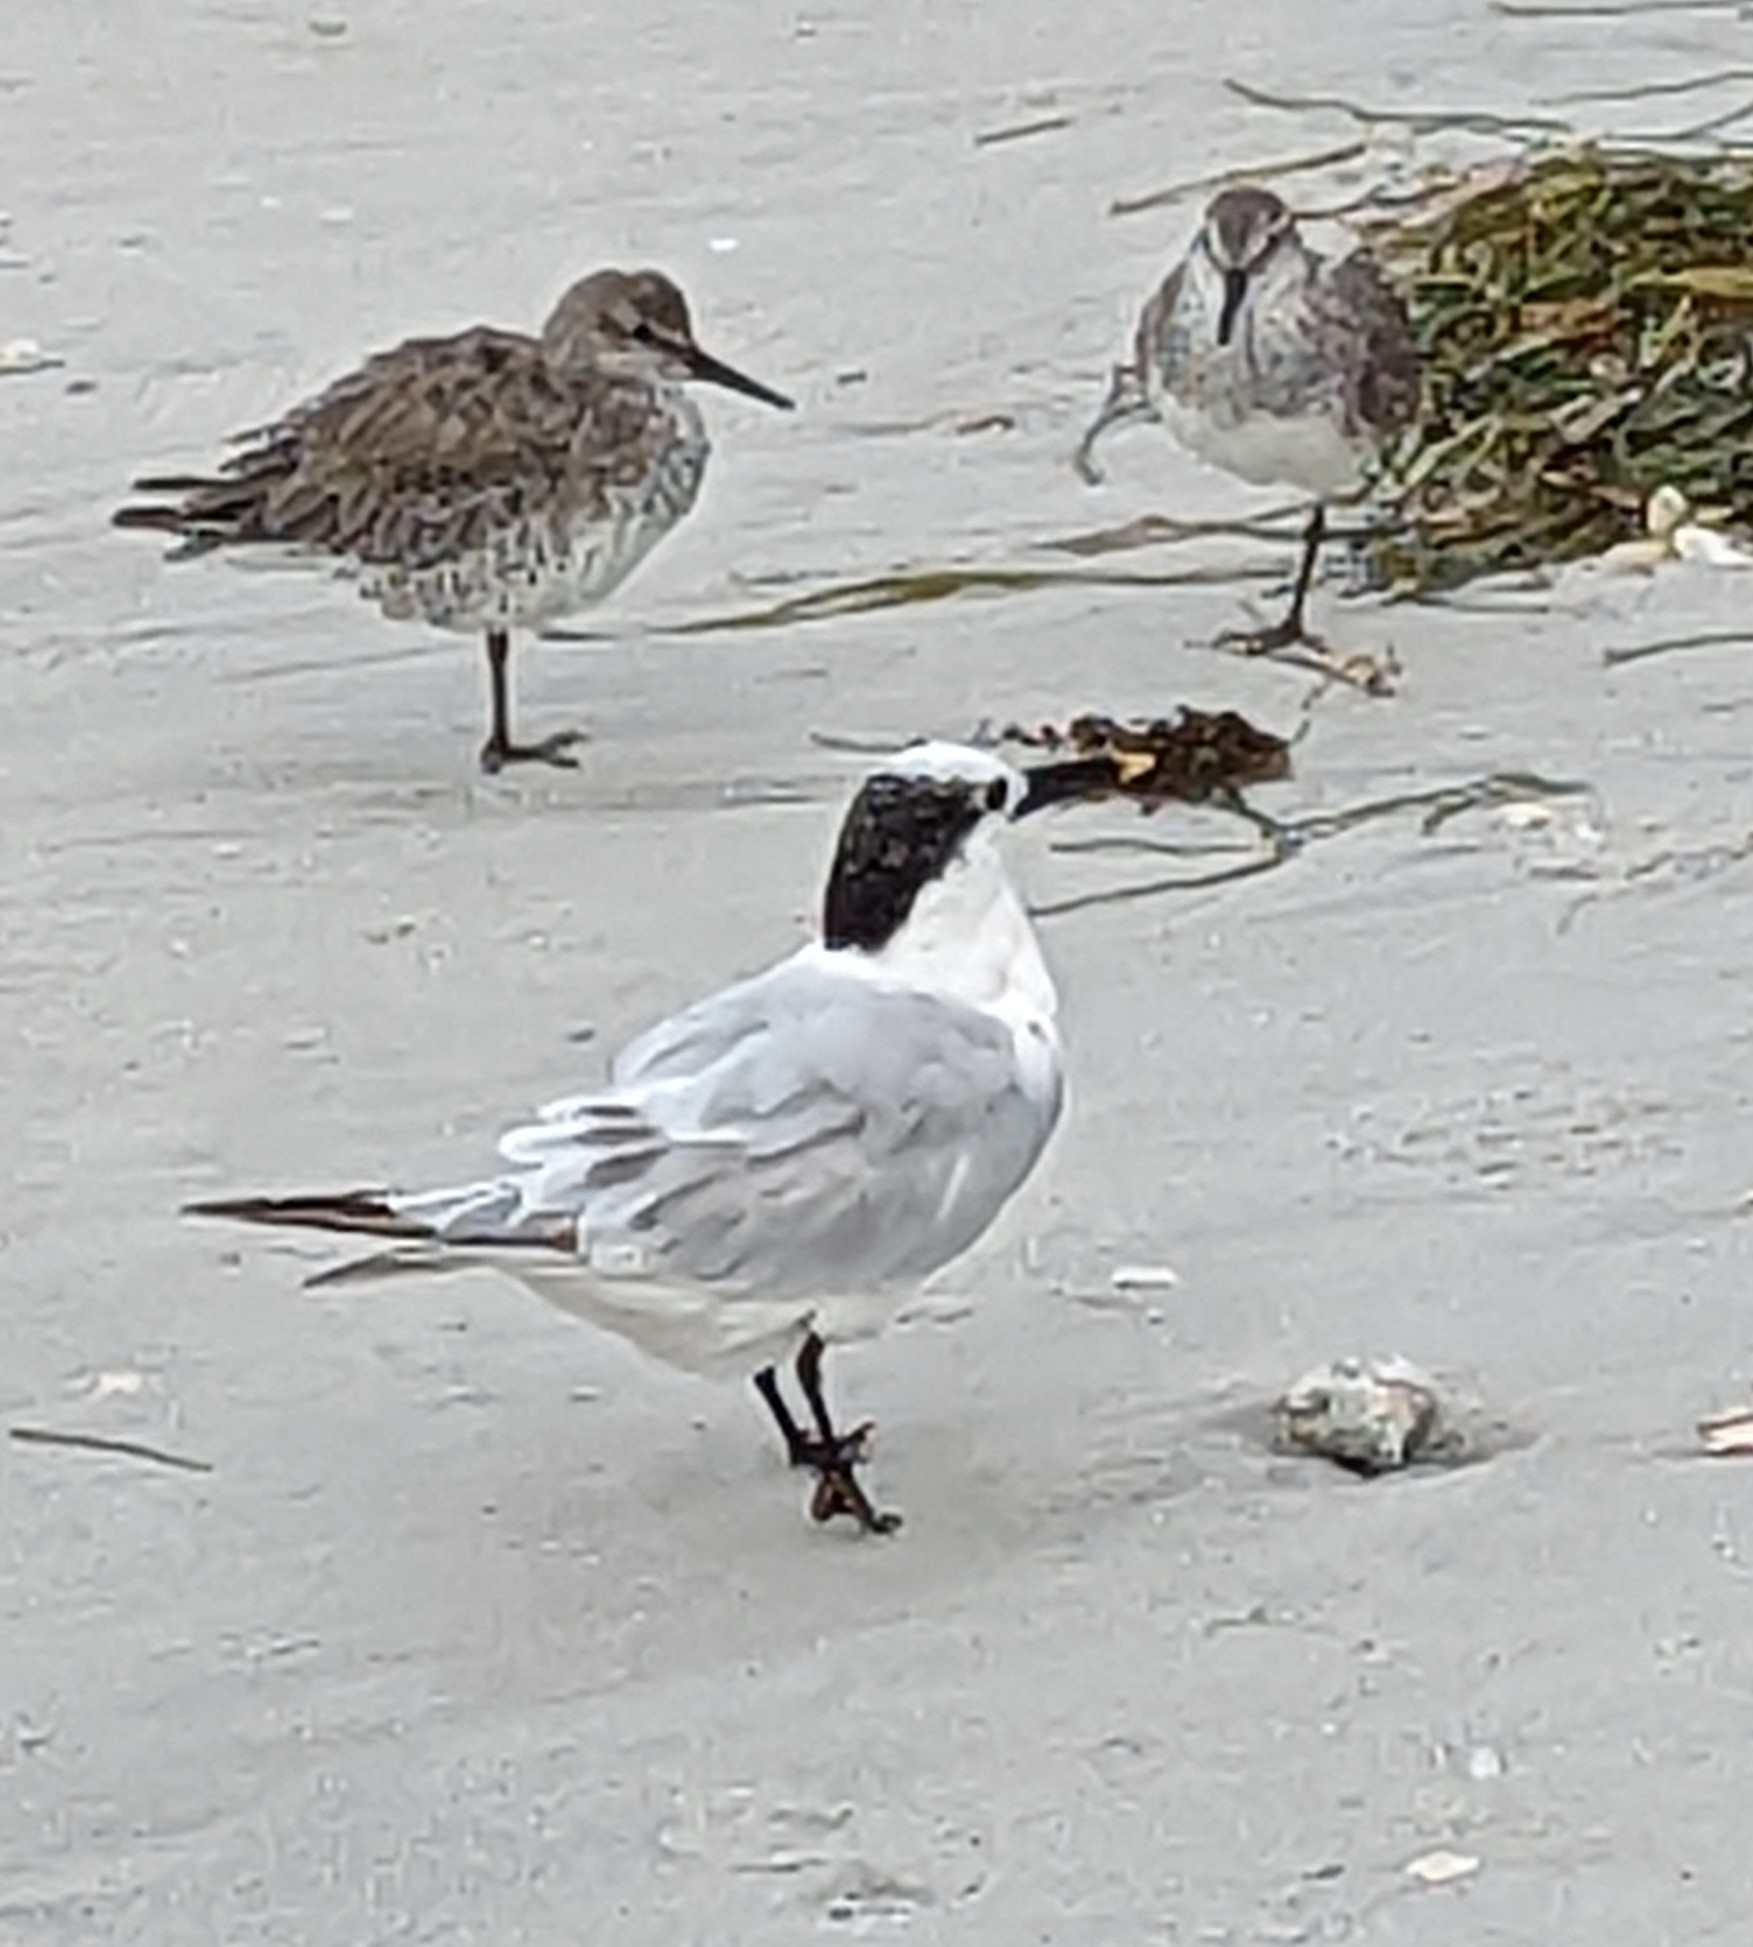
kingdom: Animalia
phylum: Chordata
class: Aves
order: Charadriiformes
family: Laridae
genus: Thalasseus
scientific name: Thalasseus sandvicensis
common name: Sandwich tern
